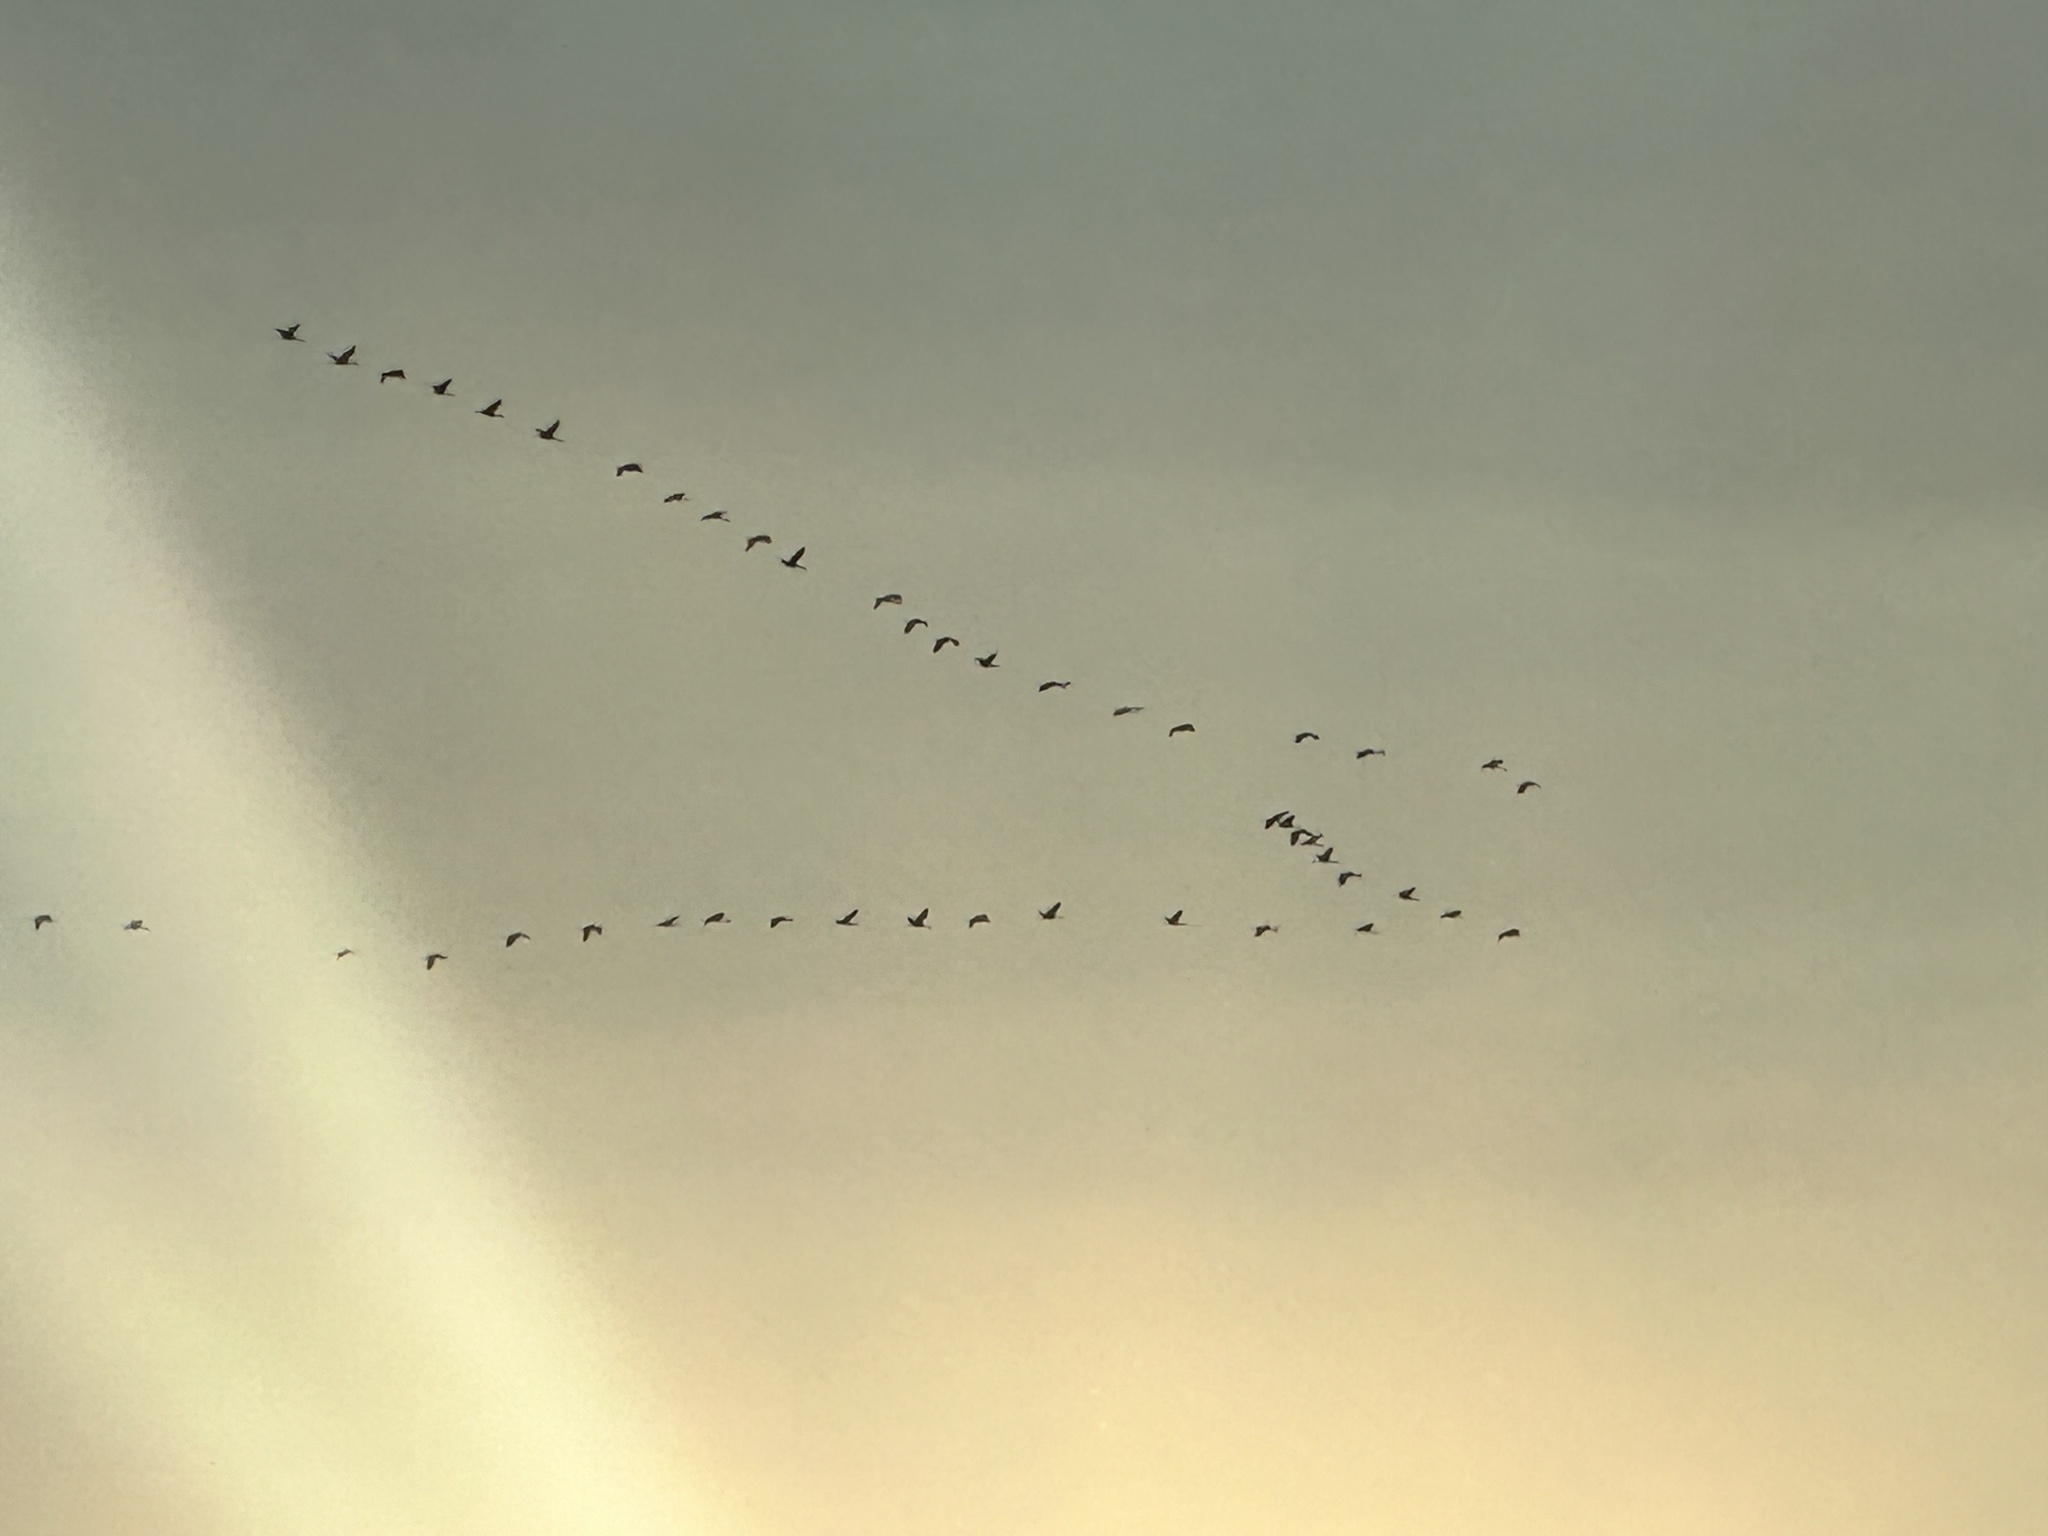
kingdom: Animalia
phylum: Chordata
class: Aves
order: Gruiformes
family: Gruidae
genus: Grus
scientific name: Grus canadensis
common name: Sandhill crane
